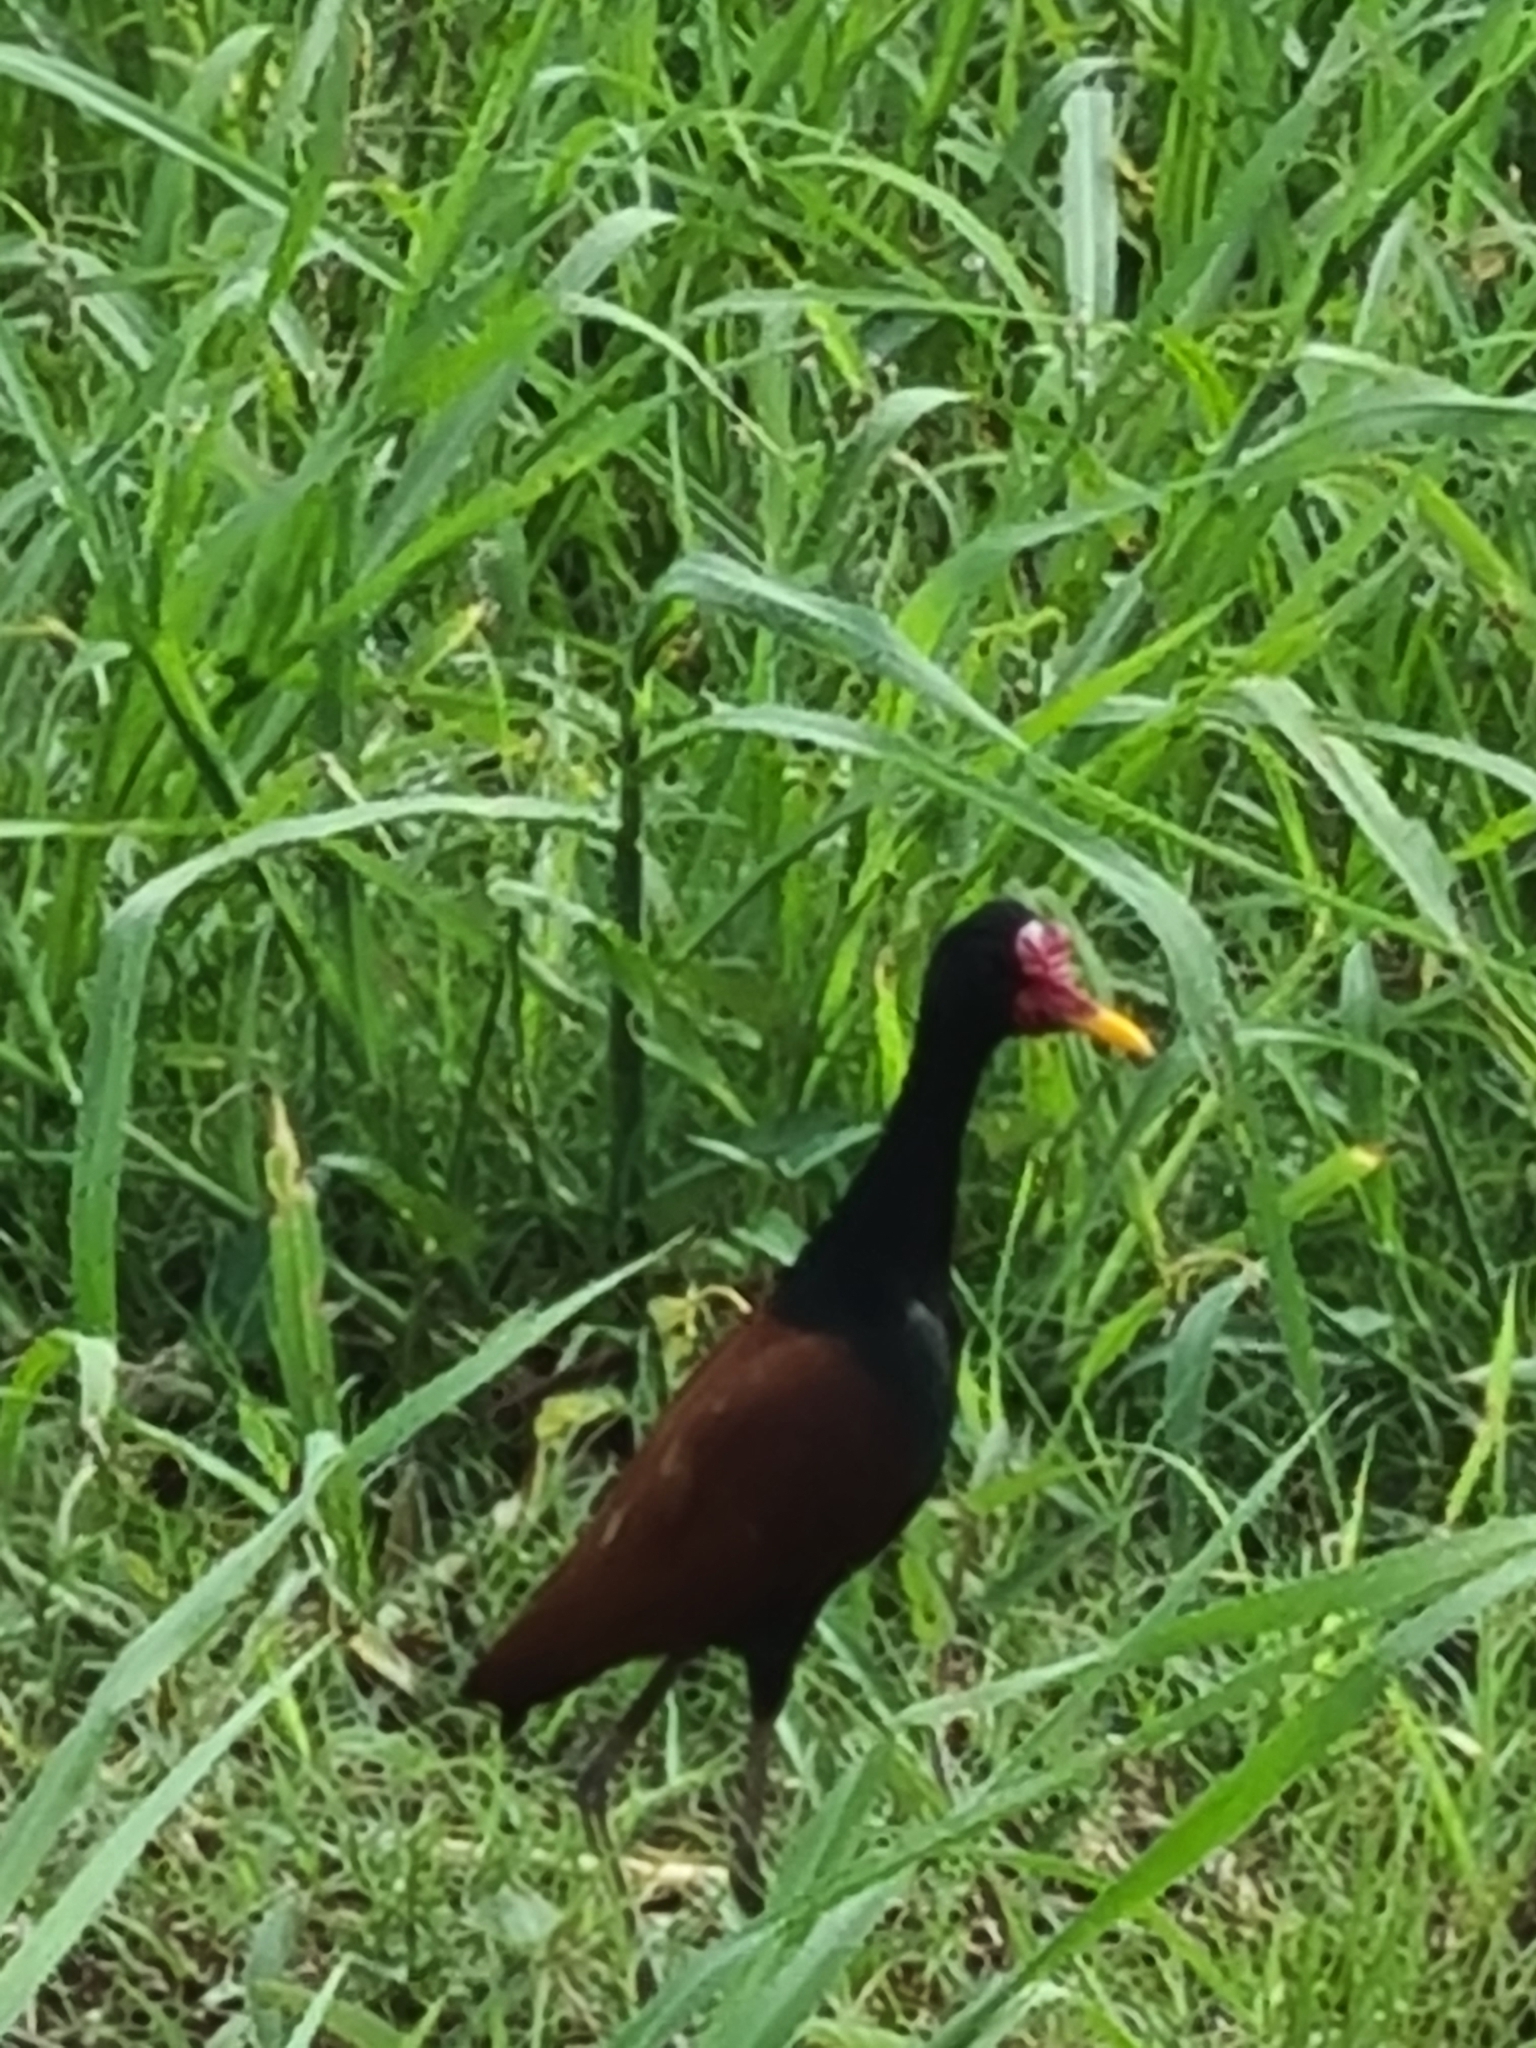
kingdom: Animalia
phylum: Chordata
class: Aves
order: Charadriiformes
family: Jacanidae
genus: Jacana
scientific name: Jacana jacana
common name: Wattled jacana
